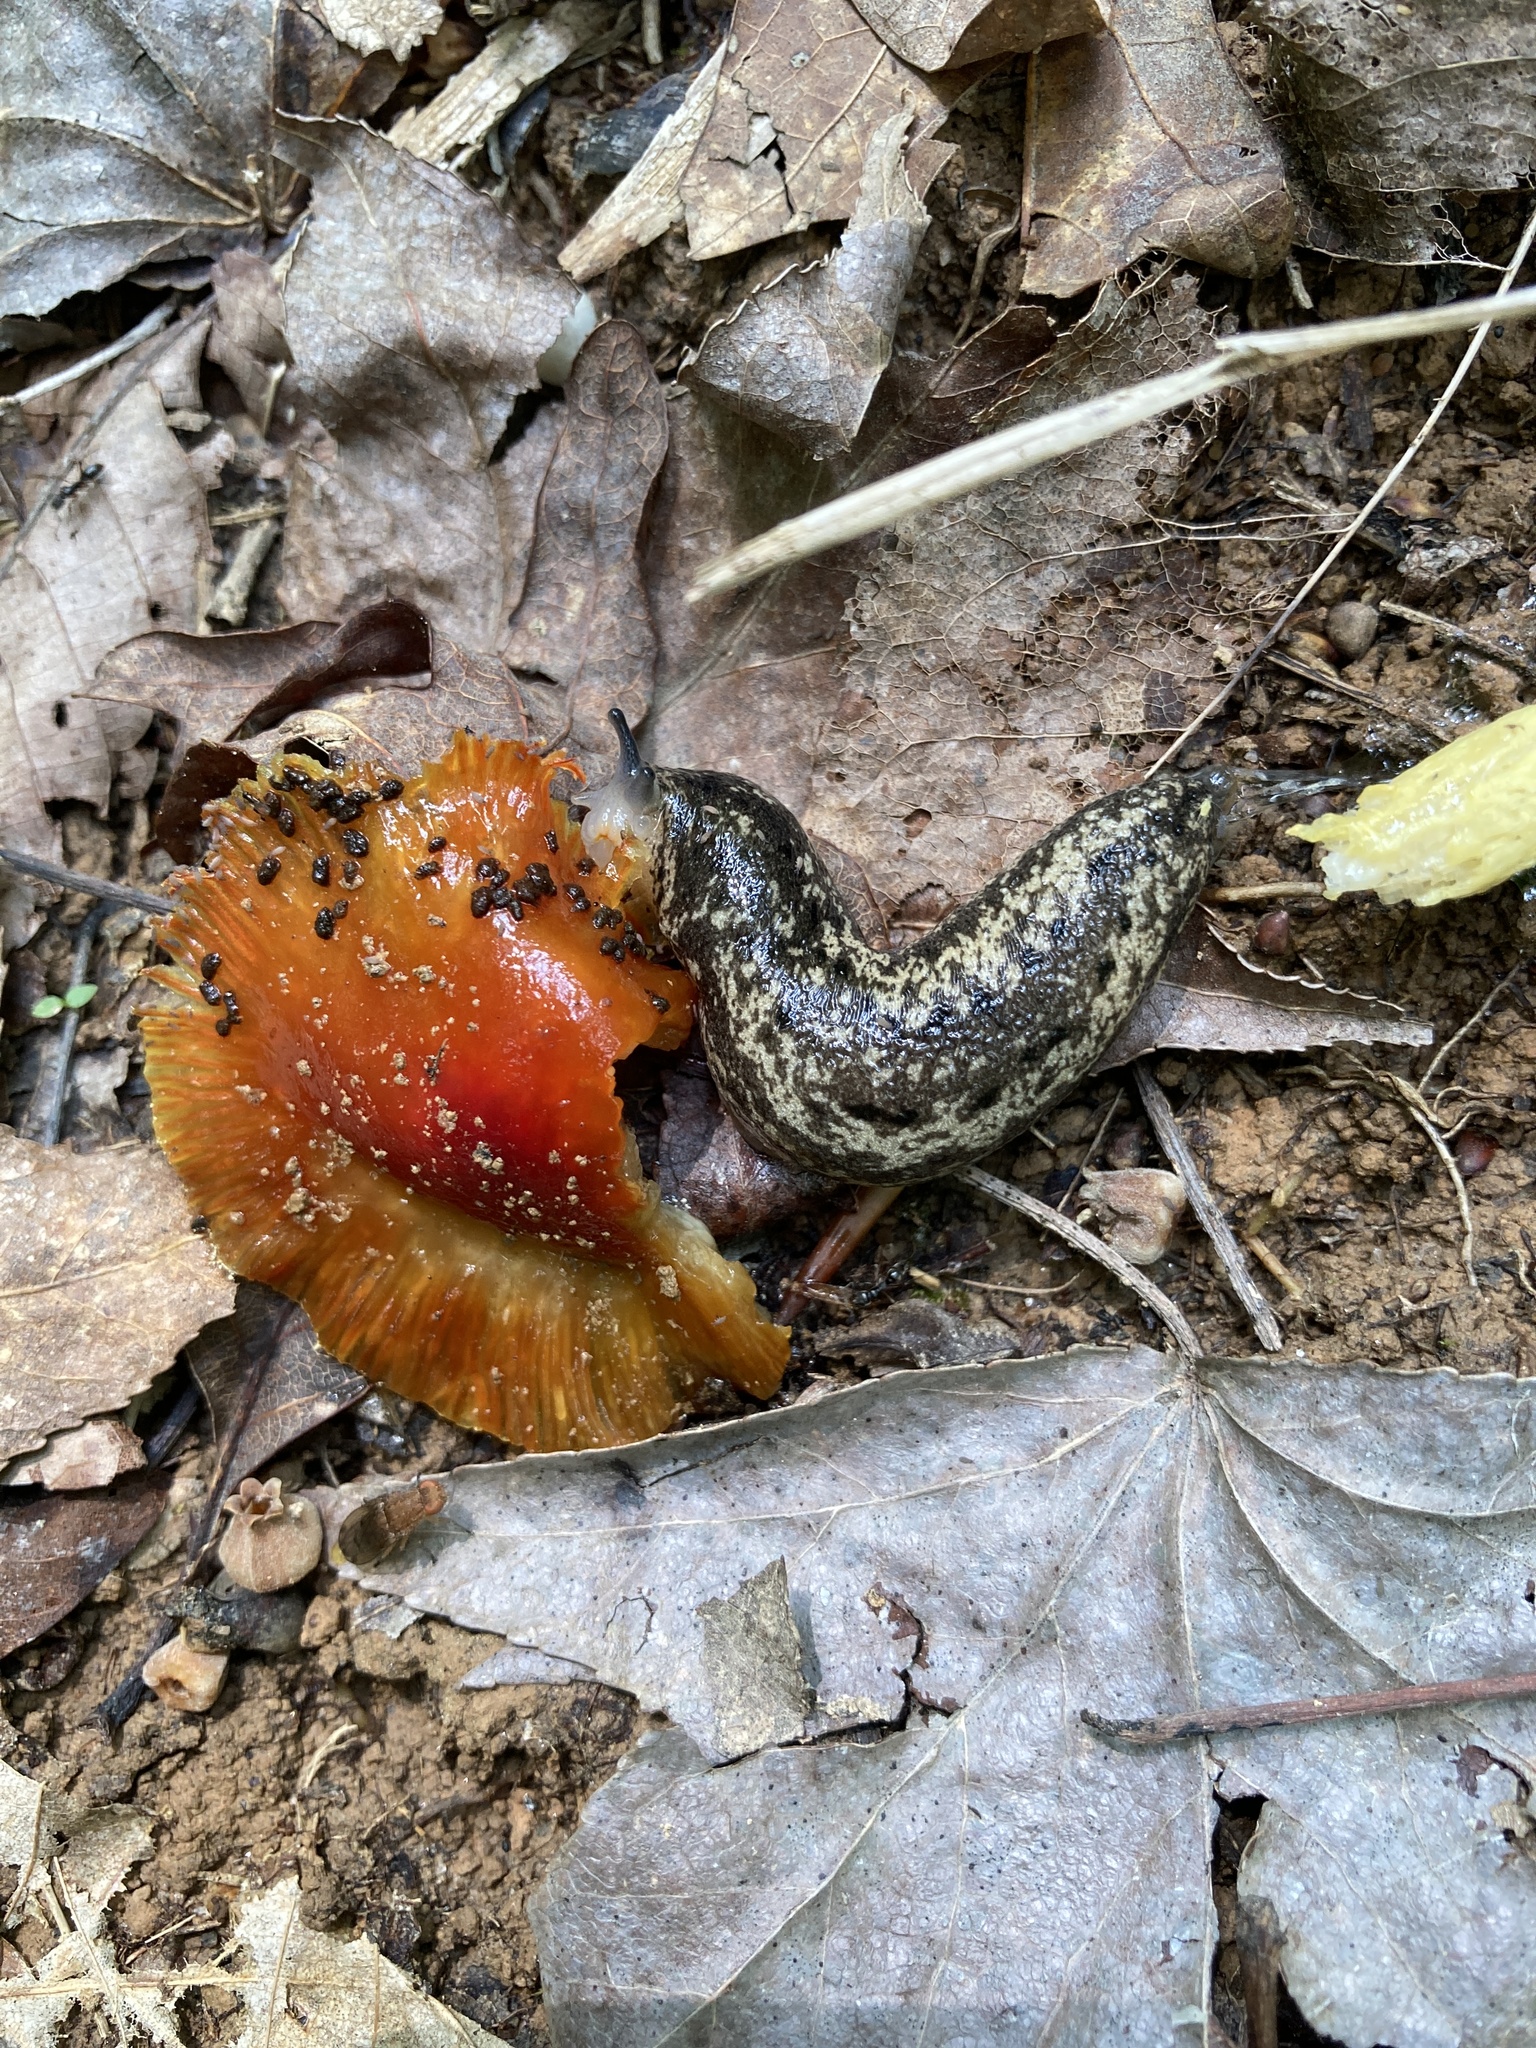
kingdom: Animalia
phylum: Mollusca
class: Gastropoda
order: Stylommatophora
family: Philomycidae
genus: Philomycus
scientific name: Philomycus carolinianus
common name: Carolina mantleslug
